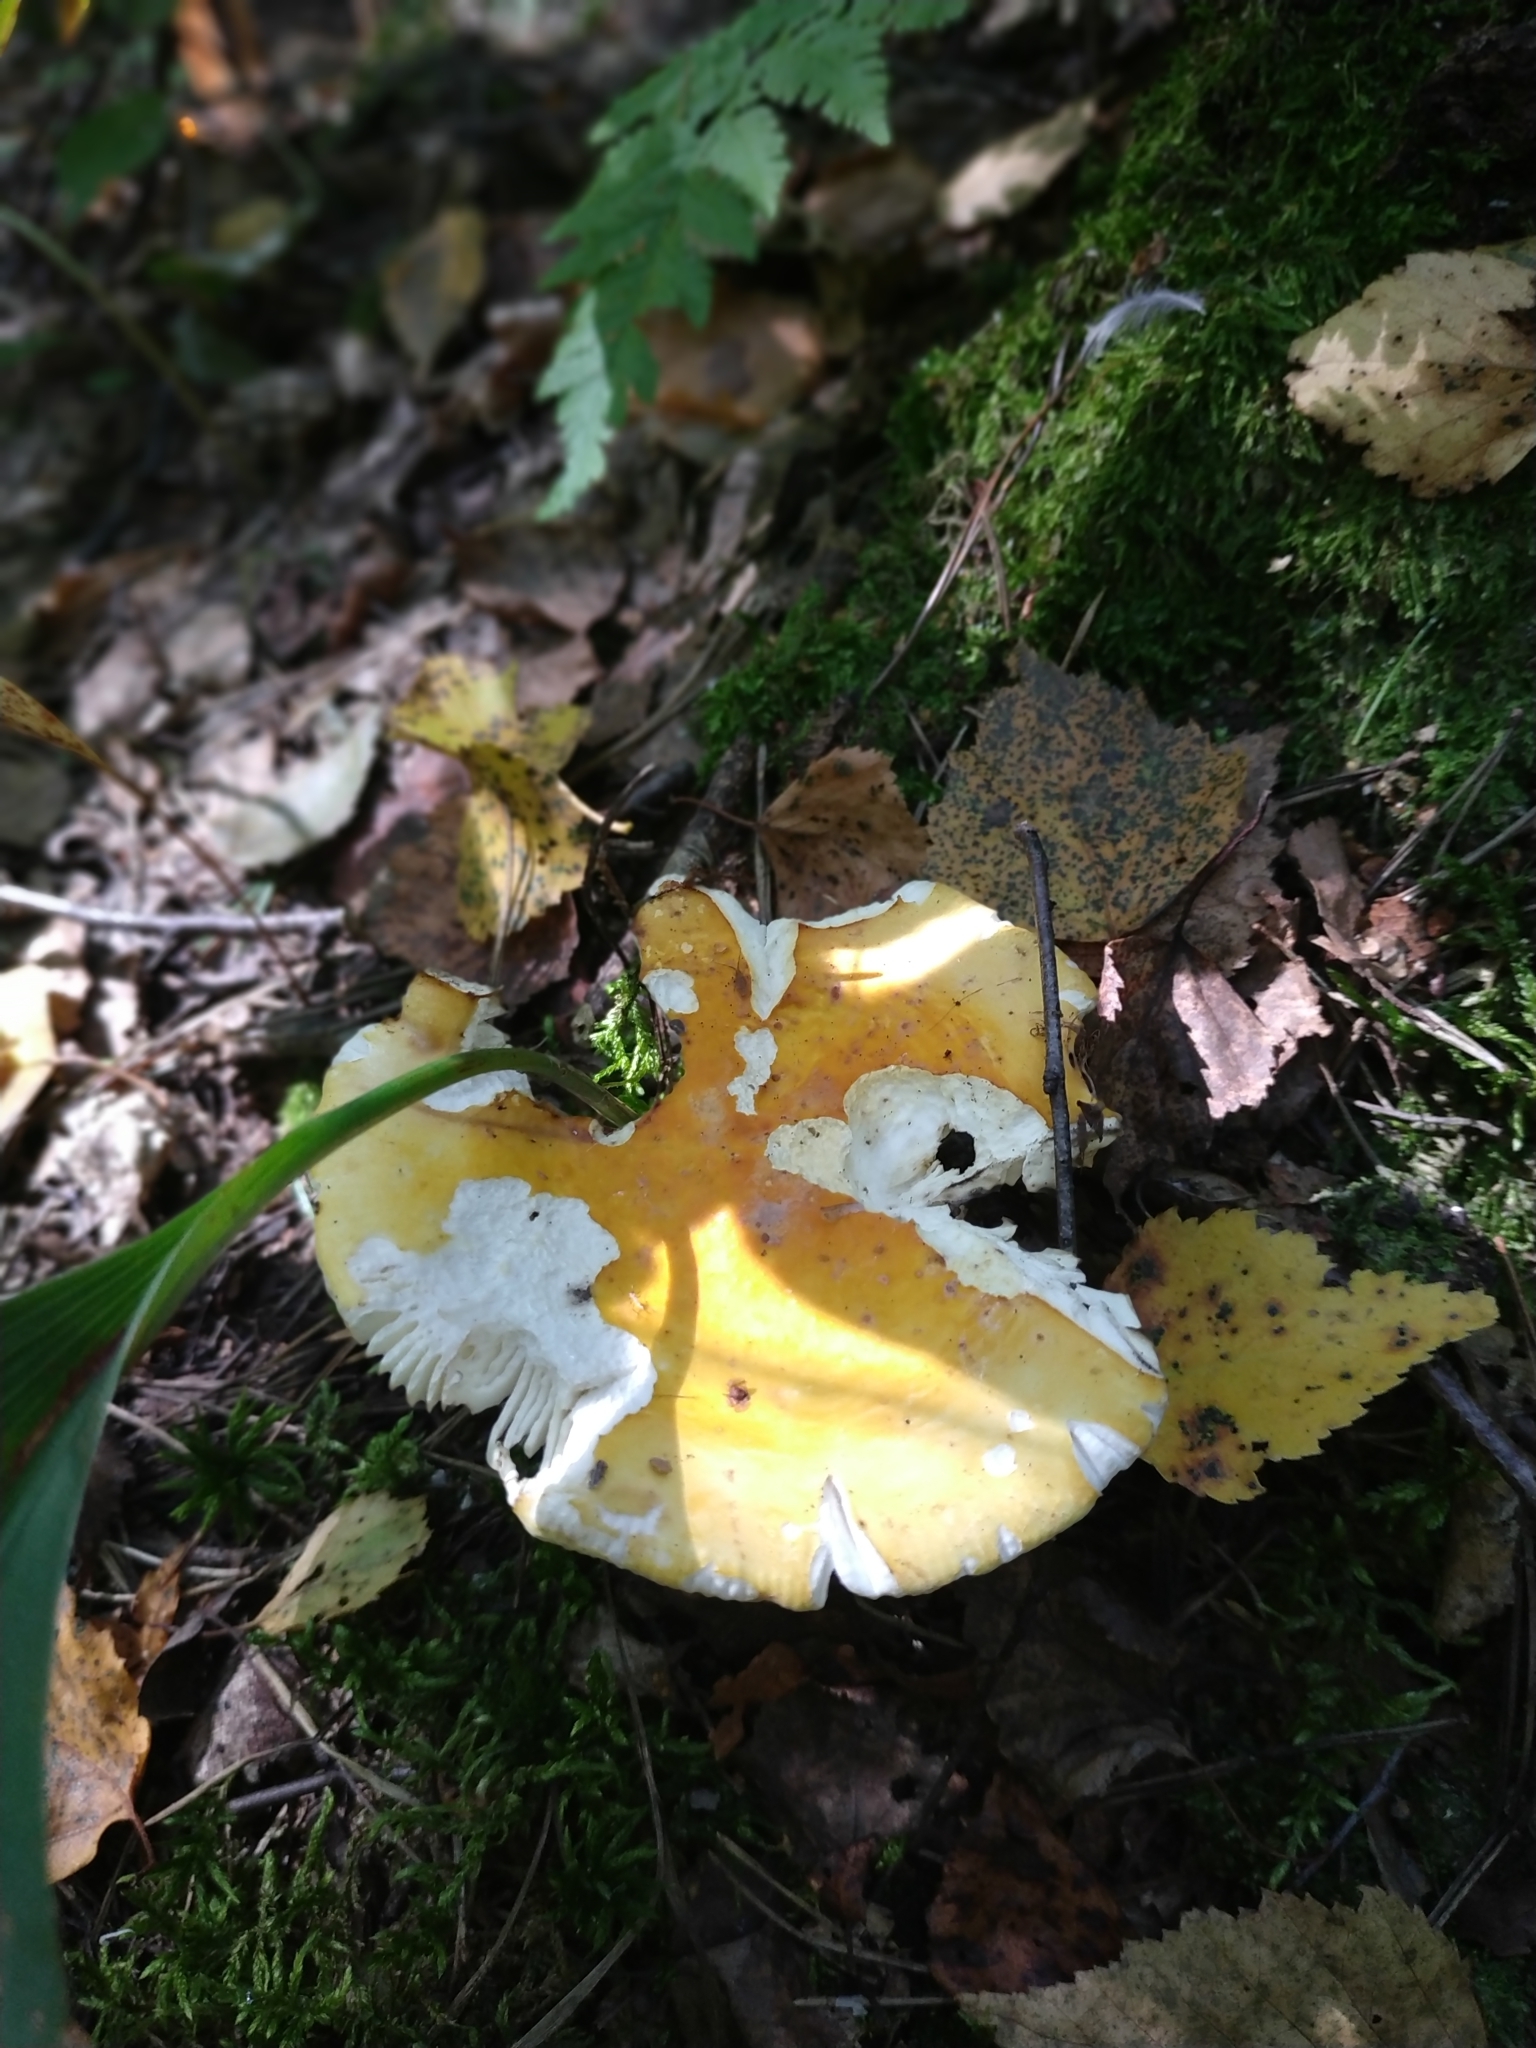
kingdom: Fungi
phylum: Basidiomycota
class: Agaricomycetes
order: Russulales
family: Russulaceae
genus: Russula
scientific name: Russula claroflava
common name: The yellow swamp brittlegill
